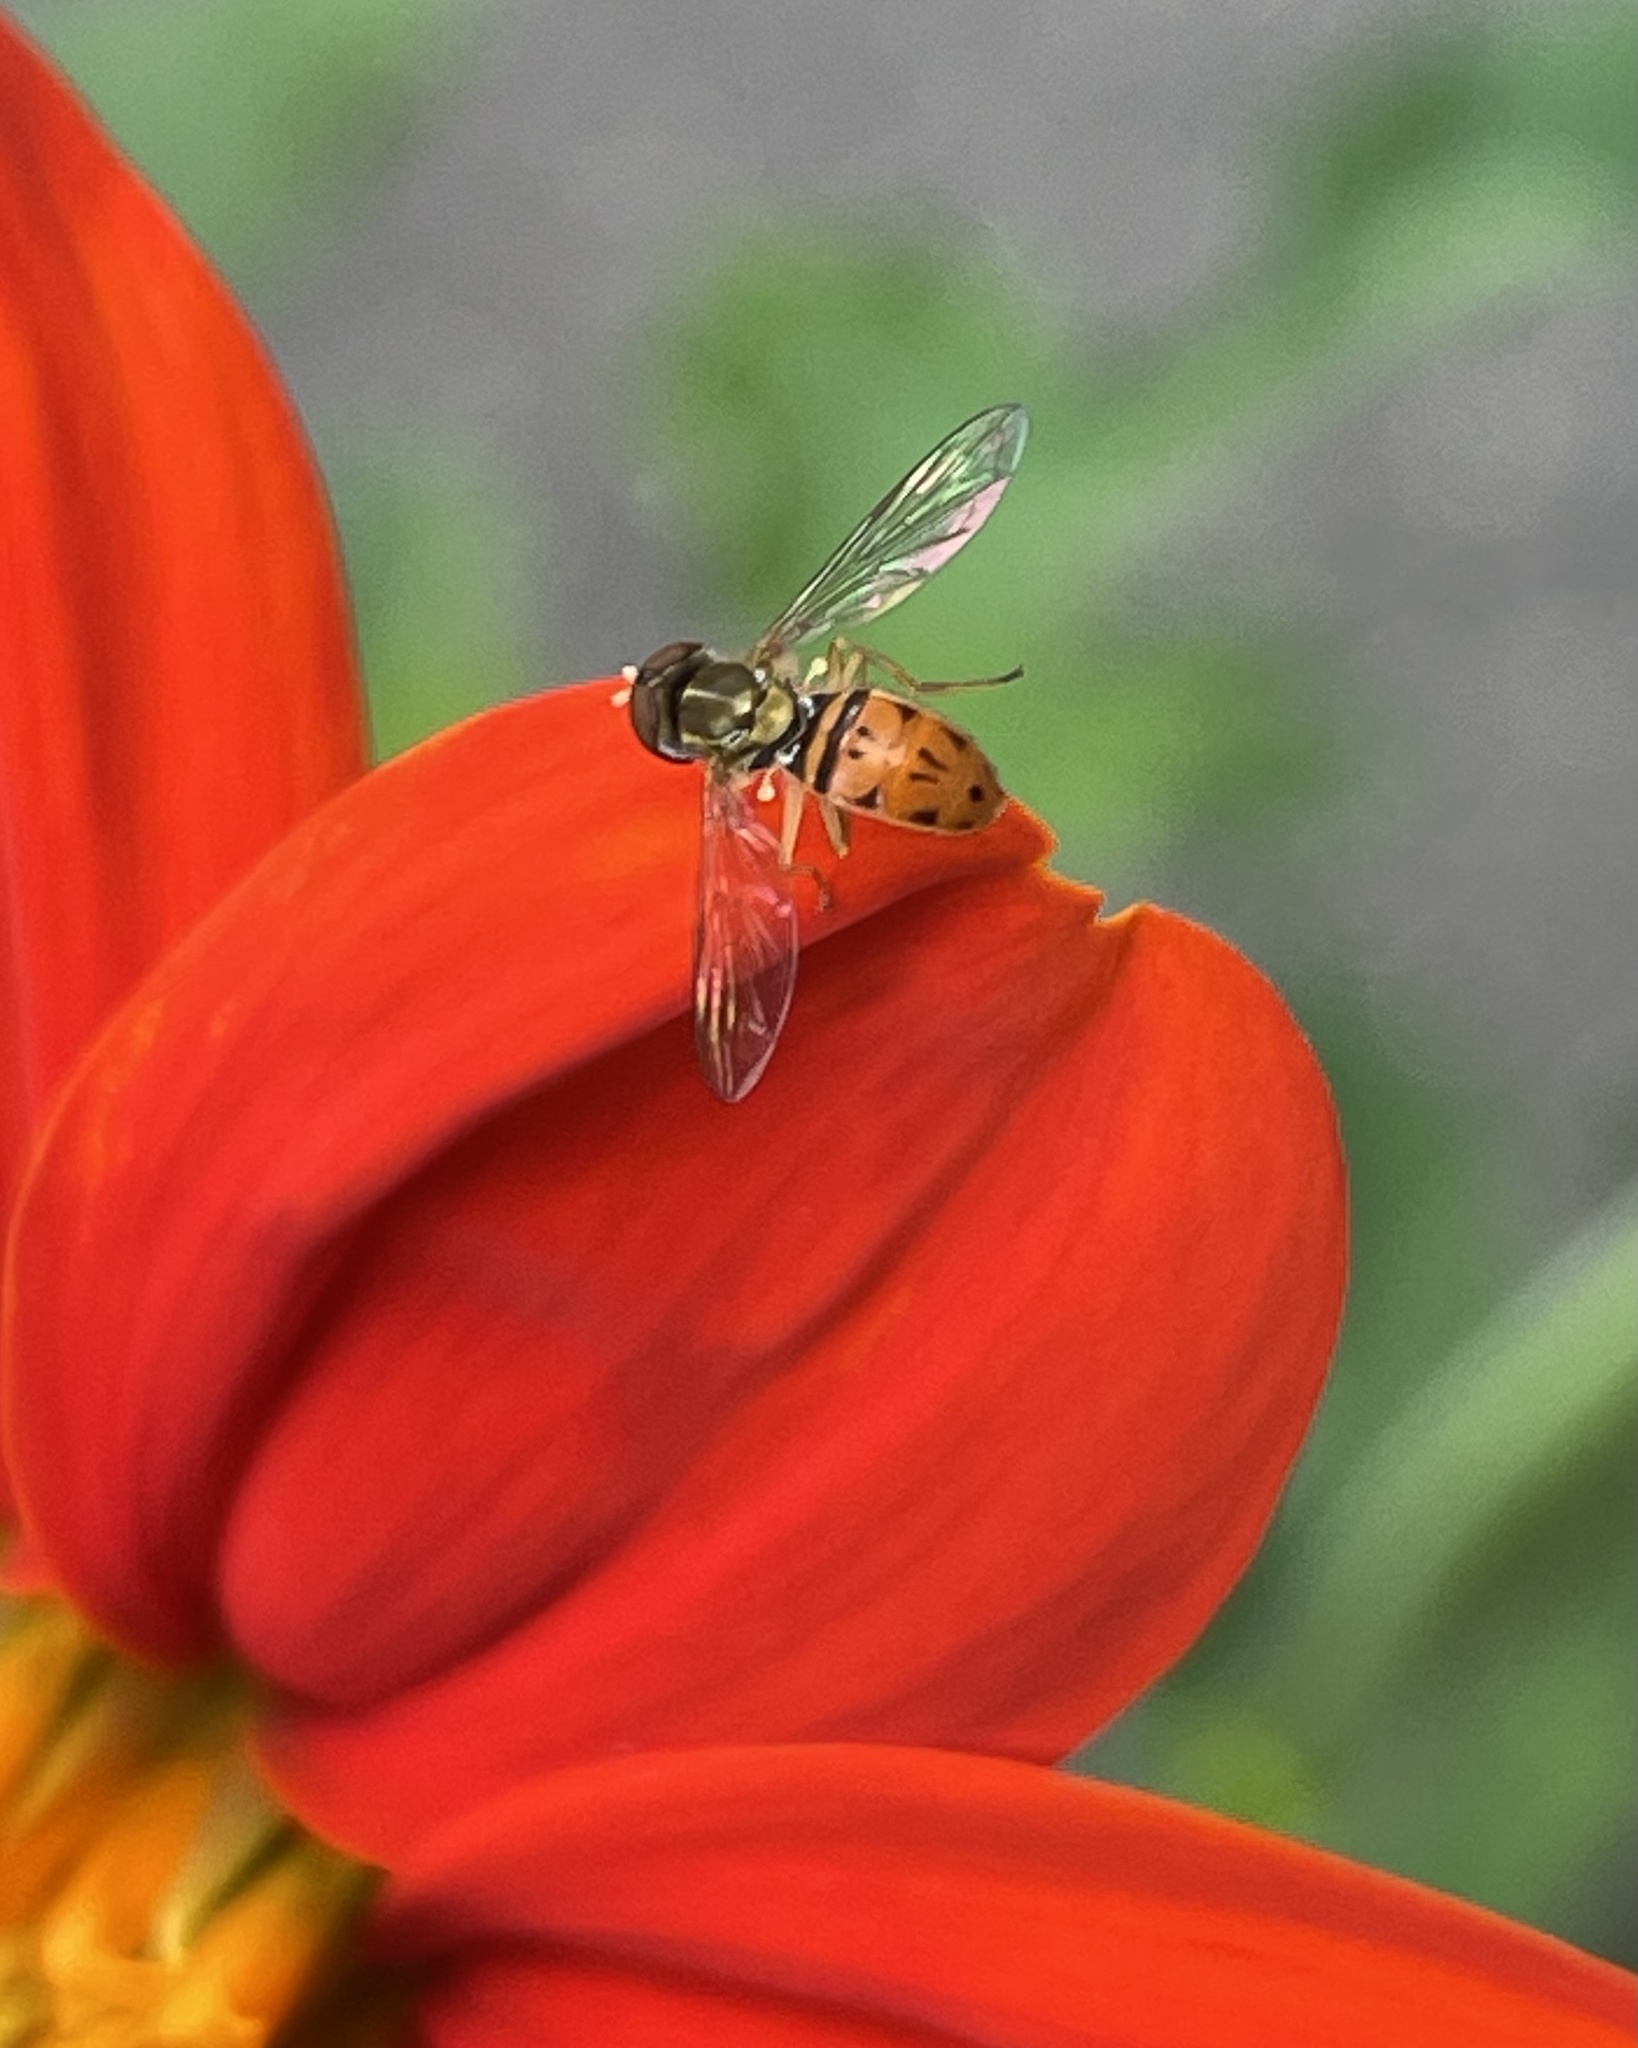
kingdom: Animalia
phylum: Arthropoda
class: Insecta
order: Diptera
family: Syrphidae
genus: Toxomerus
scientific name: Toxomerus marginatus
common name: Syrphid fly
